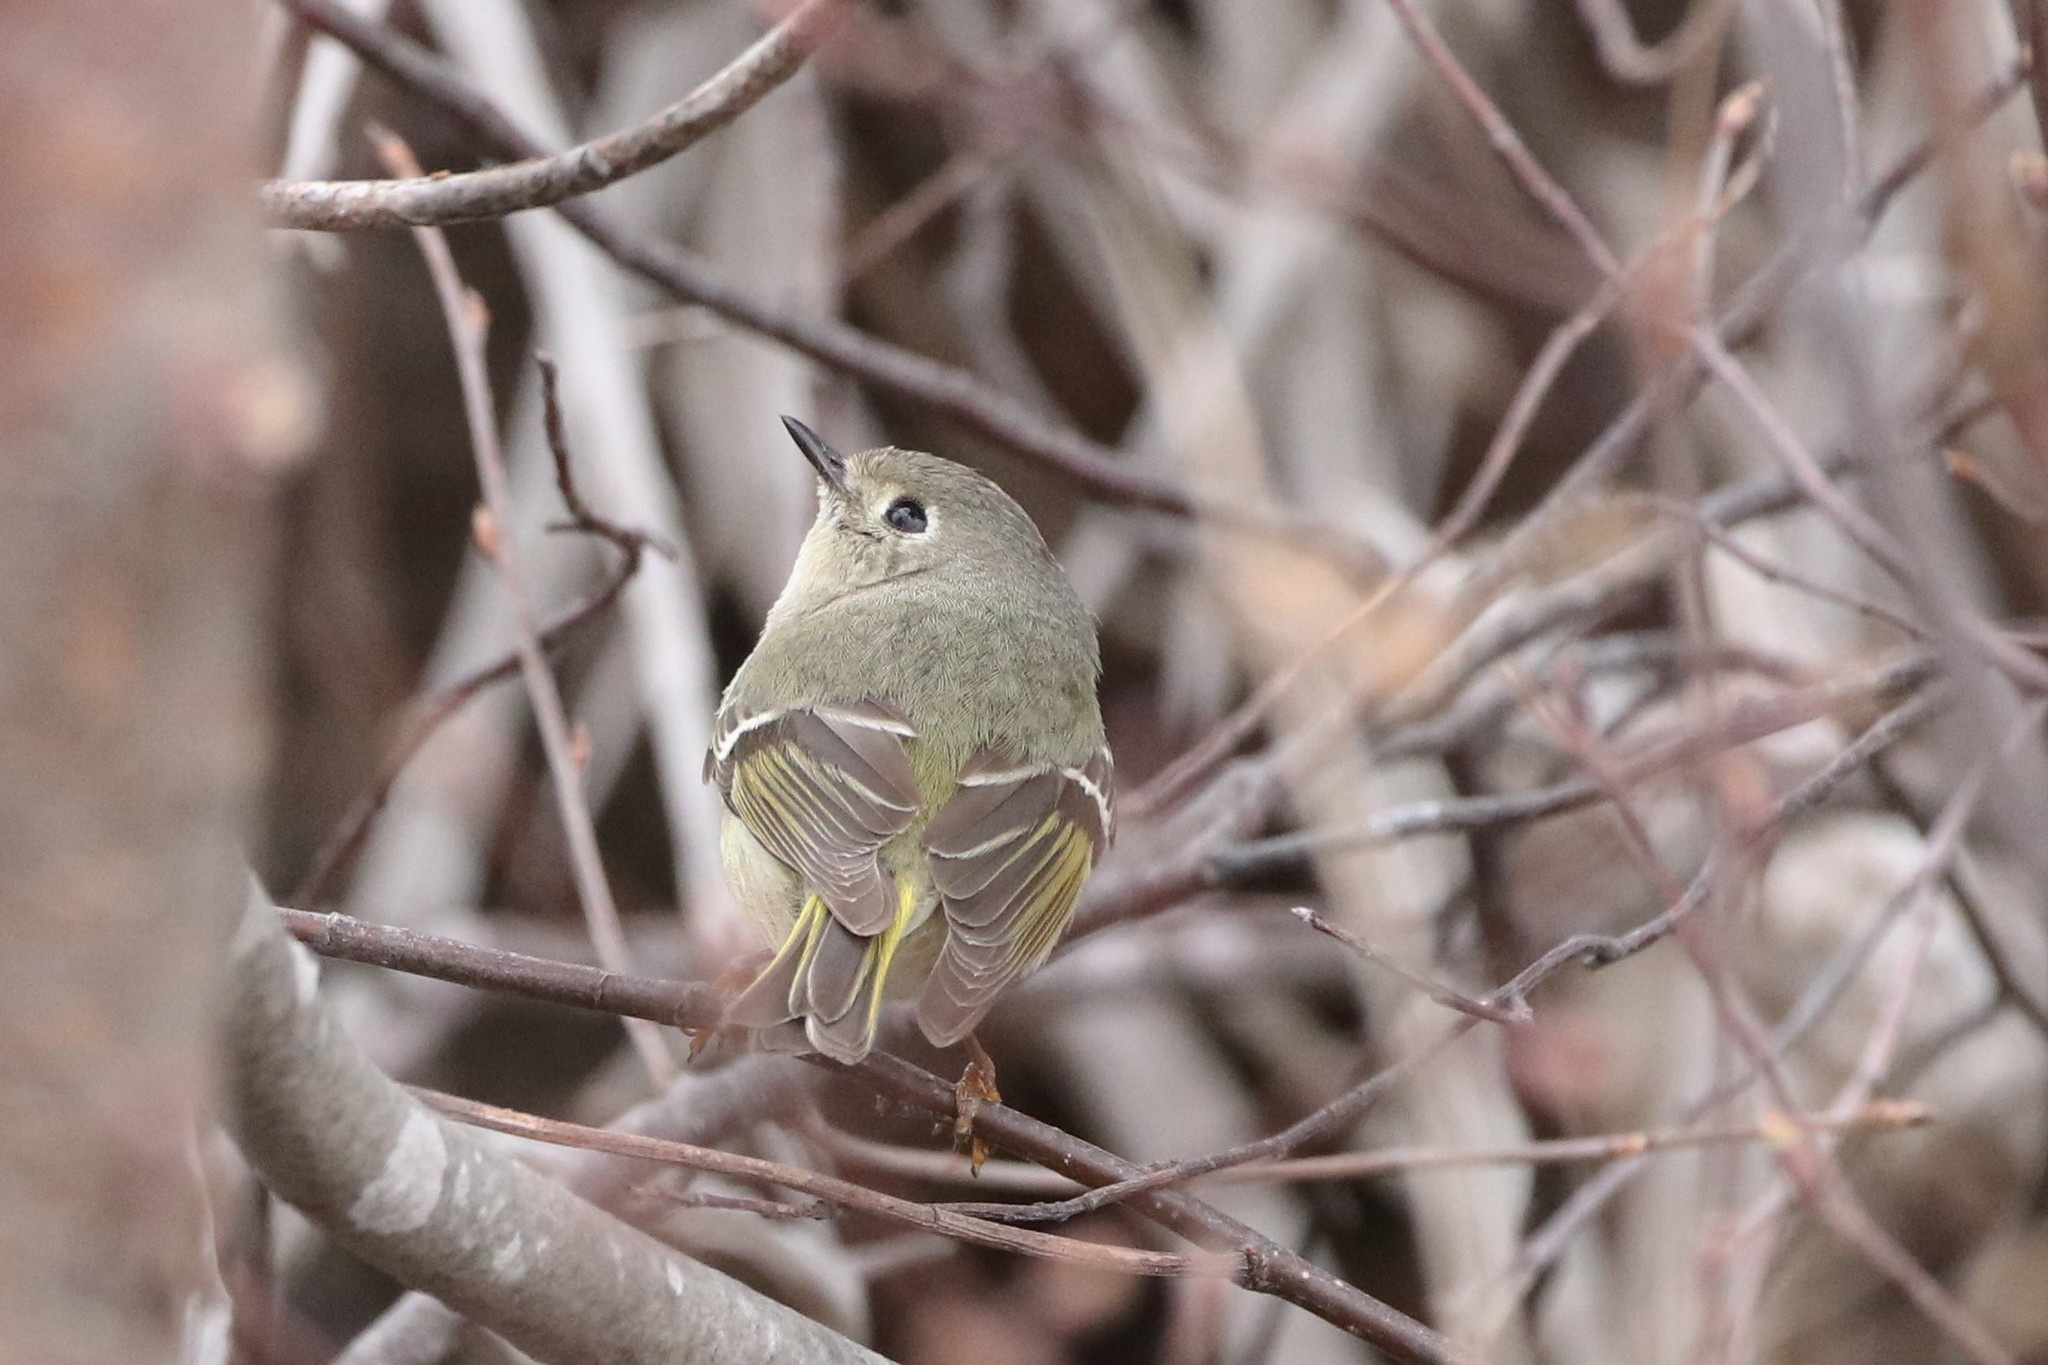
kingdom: Animalia
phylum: Chordata
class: Aves
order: Passeriformes
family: Regulidae
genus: Regulus
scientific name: Regulus calendula
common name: Ruby-crowned kinglet
